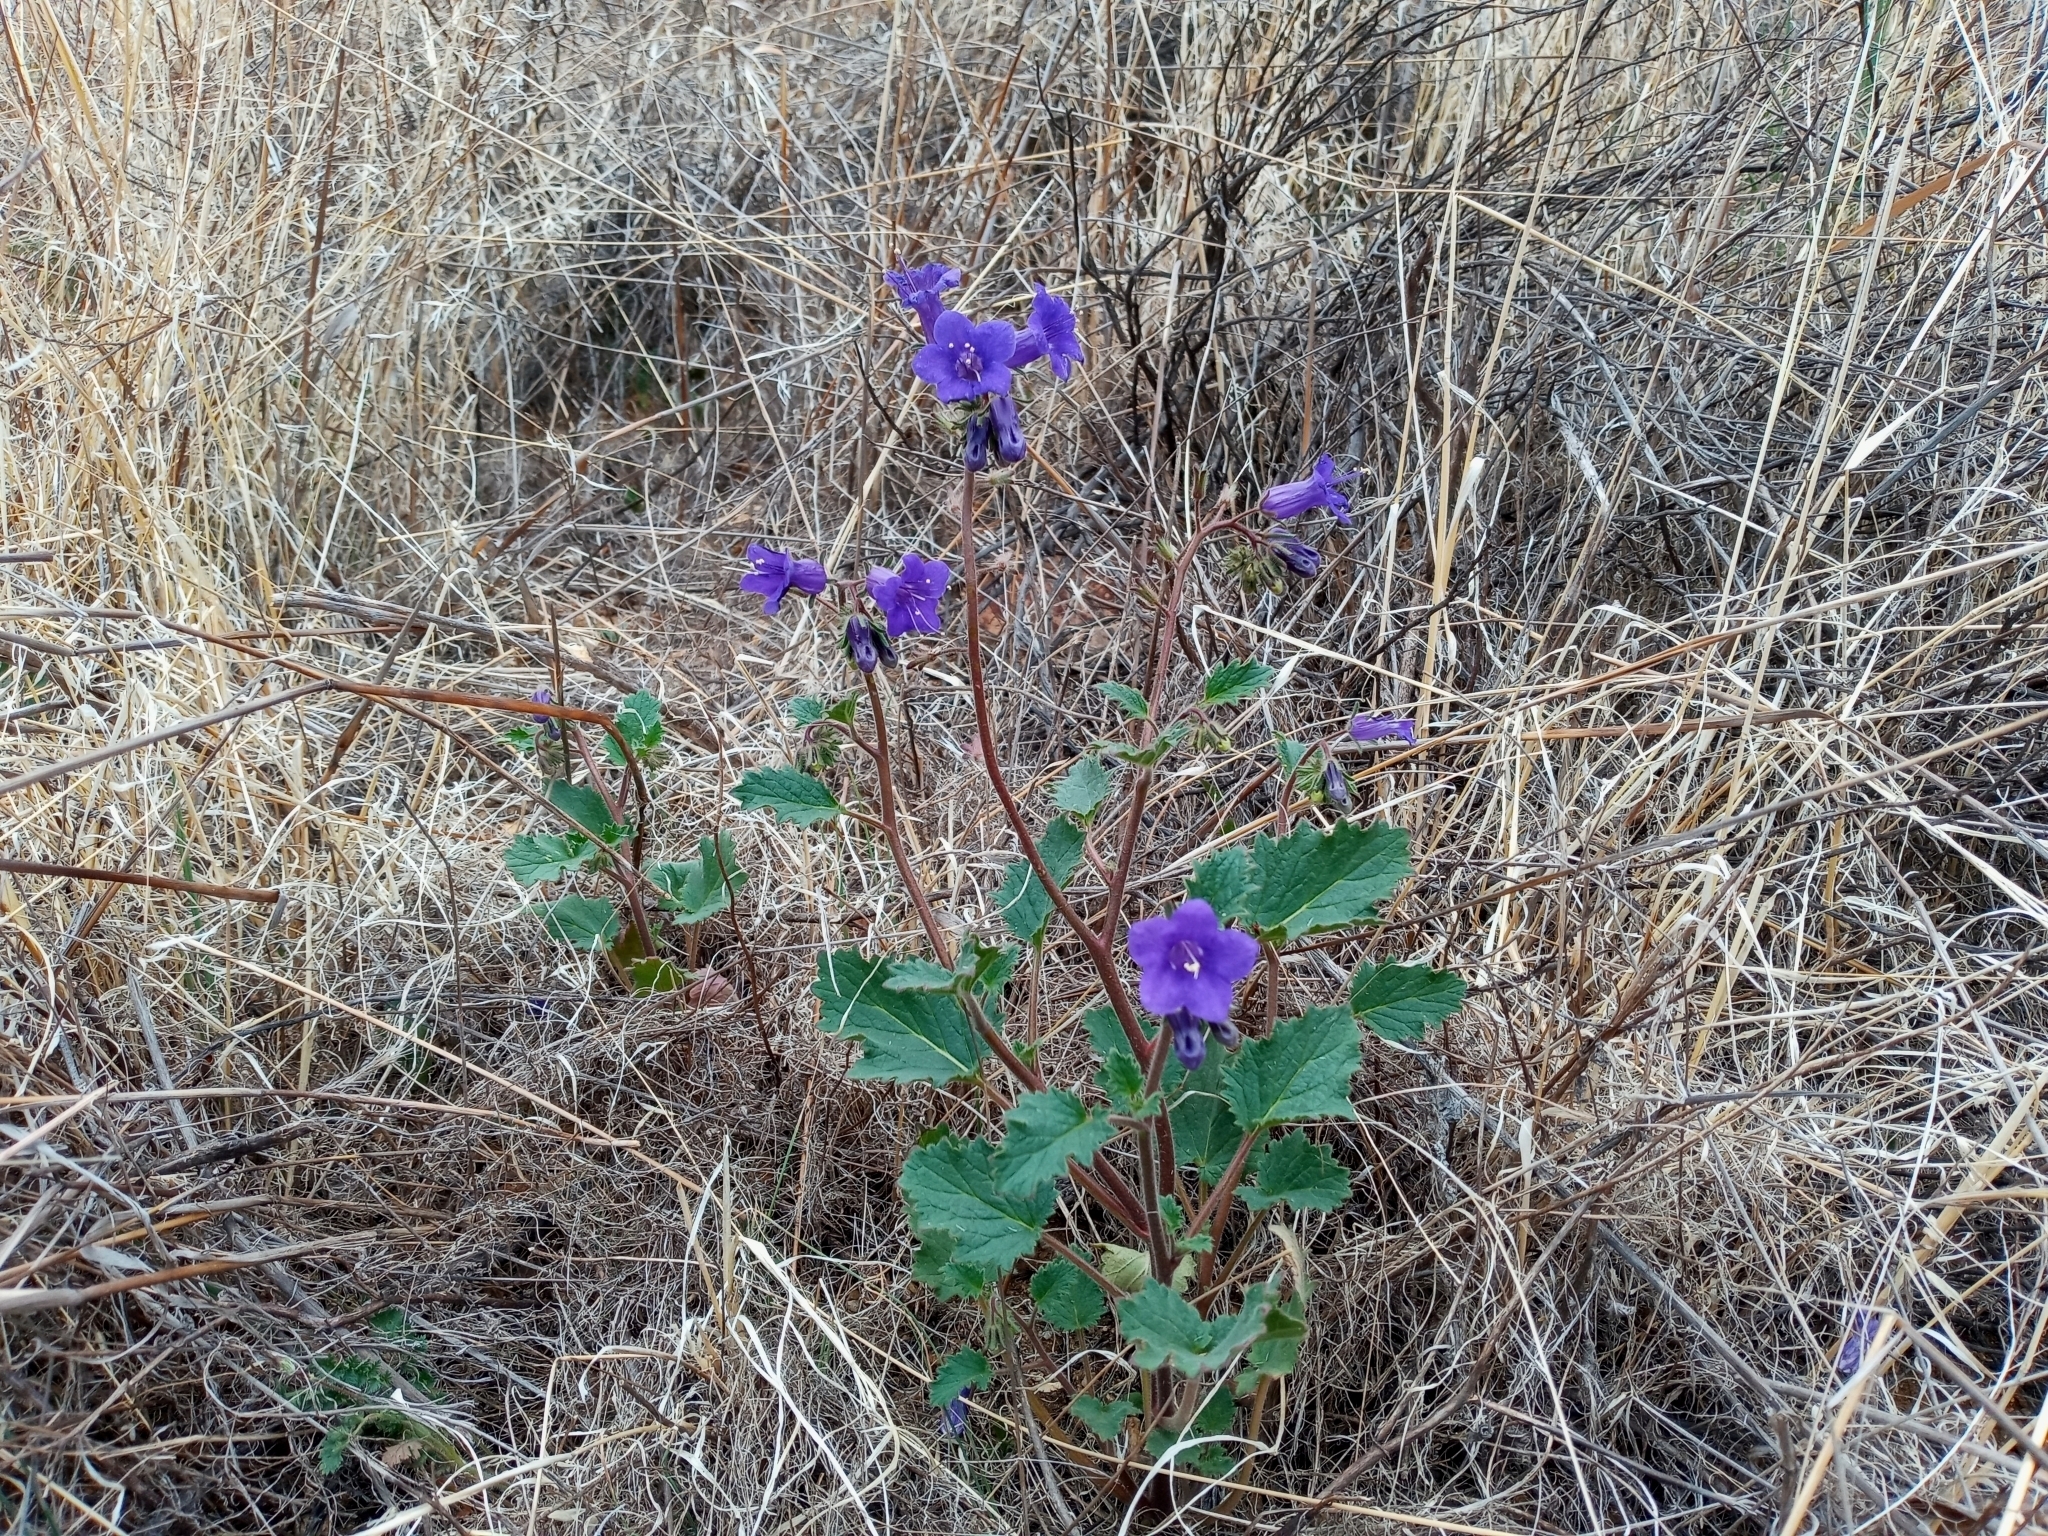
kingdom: Plantae
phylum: Tracheophyta
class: Magnoliopsida
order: Boraginales
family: Hydrophyllaceae
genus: Phacelia
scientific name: Phacelia minor
